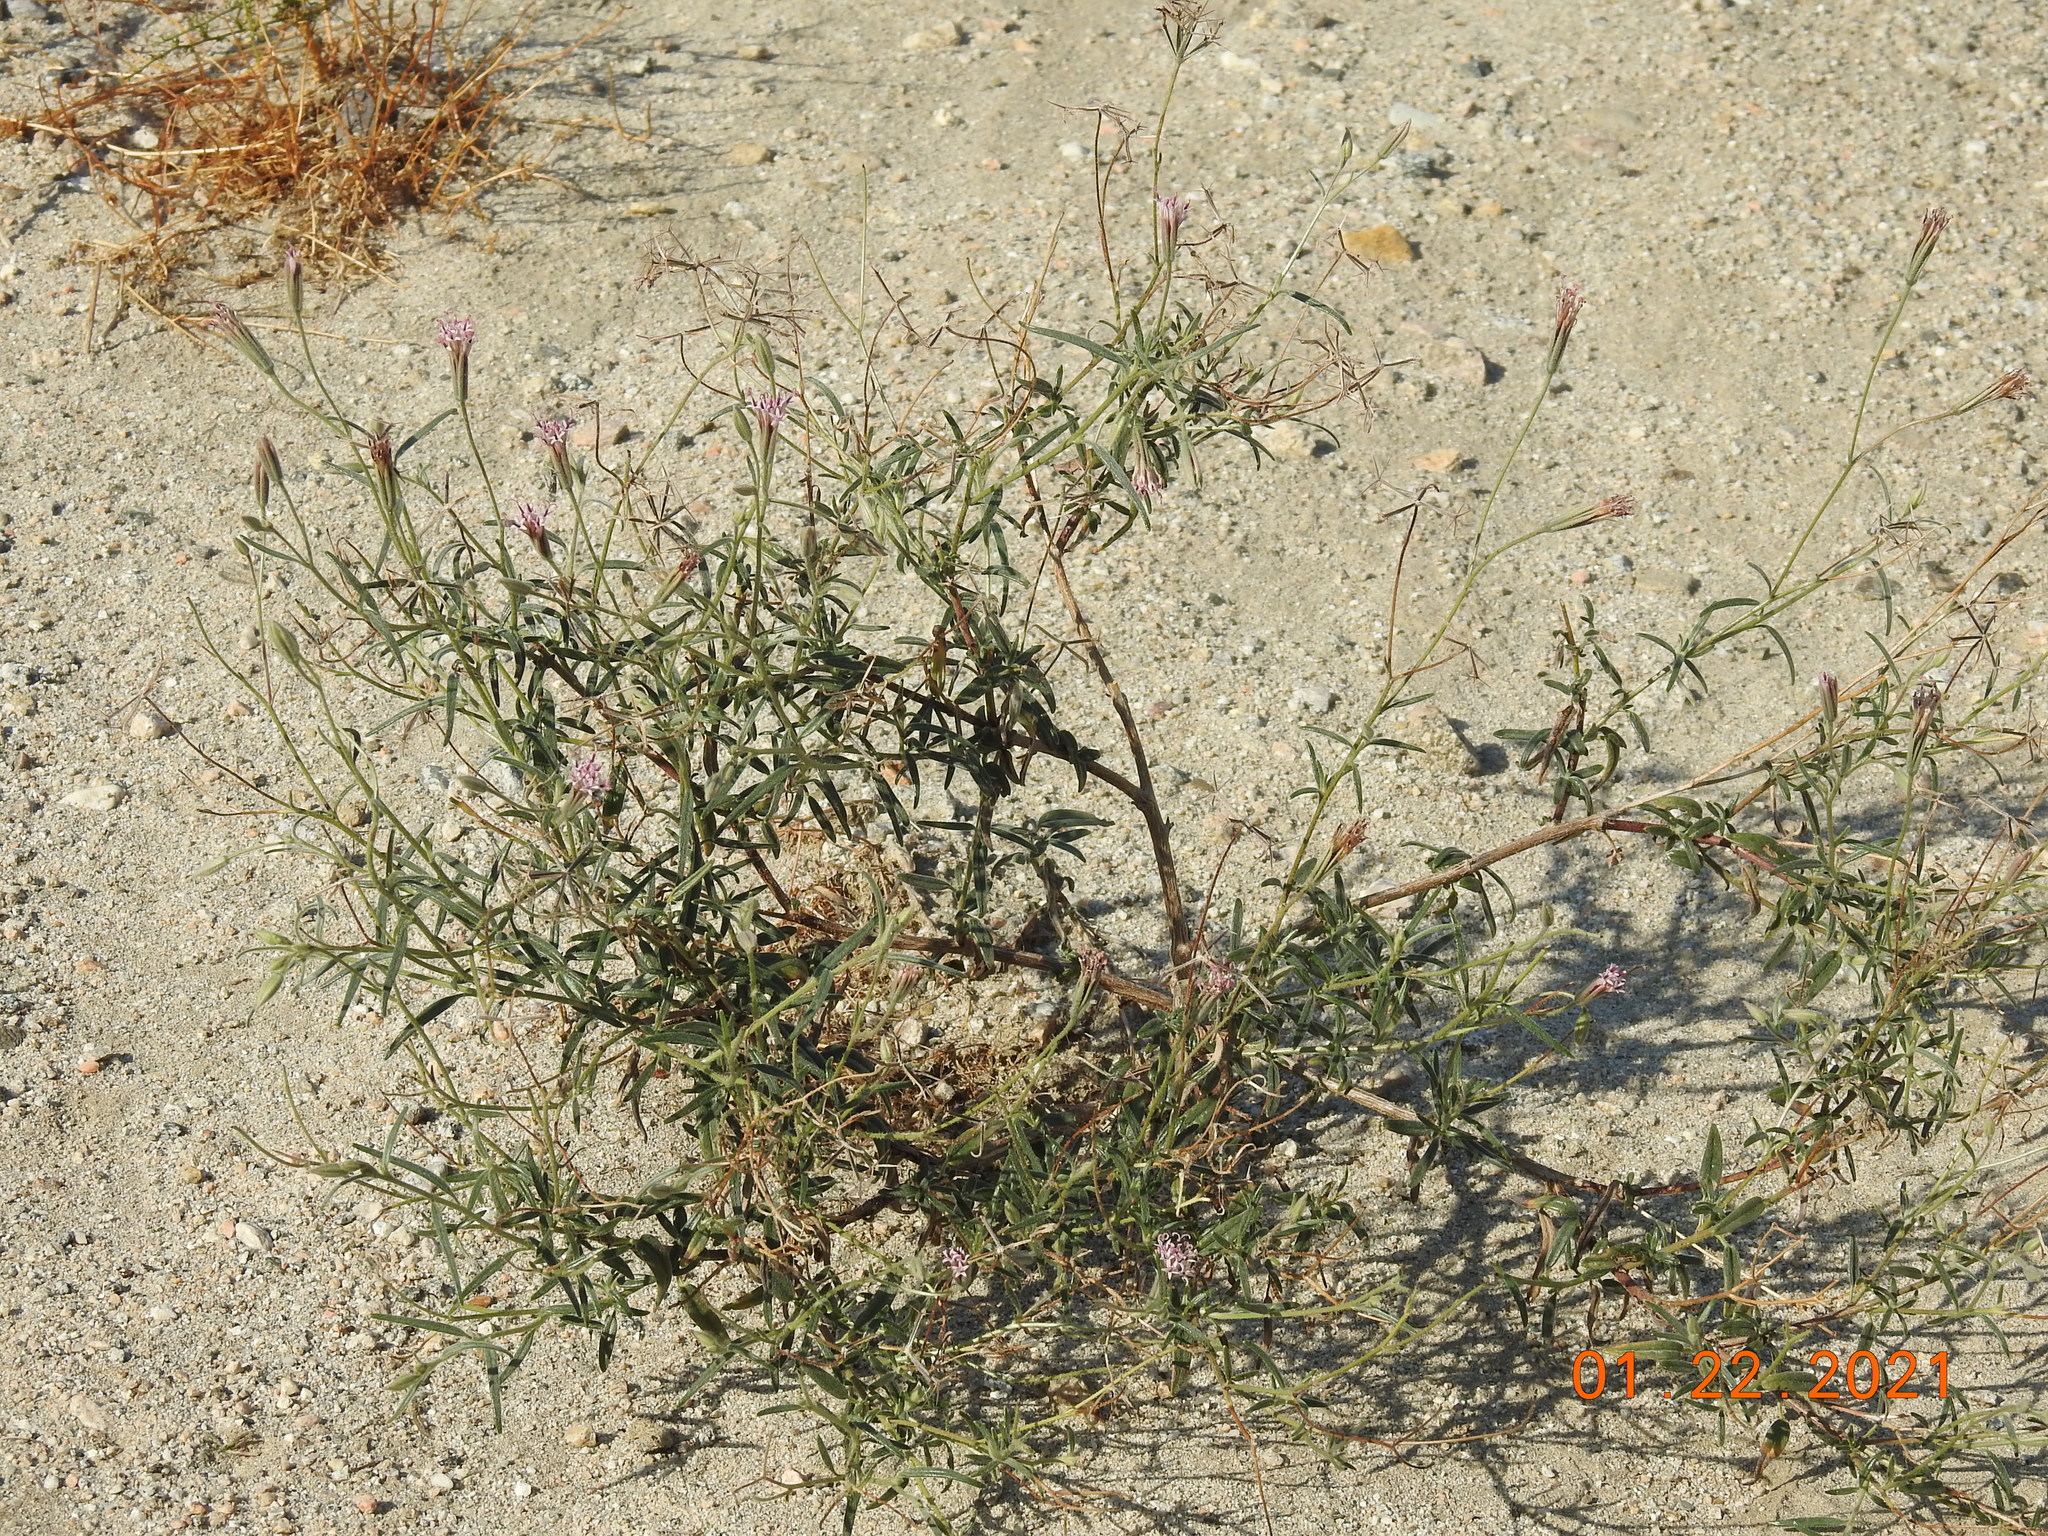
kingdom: Plantae
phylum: Tracheophyta
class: Magnoliopsida
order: Asterales
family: Asteraceae
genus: Palafoxia
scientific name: Palafoxia arida
